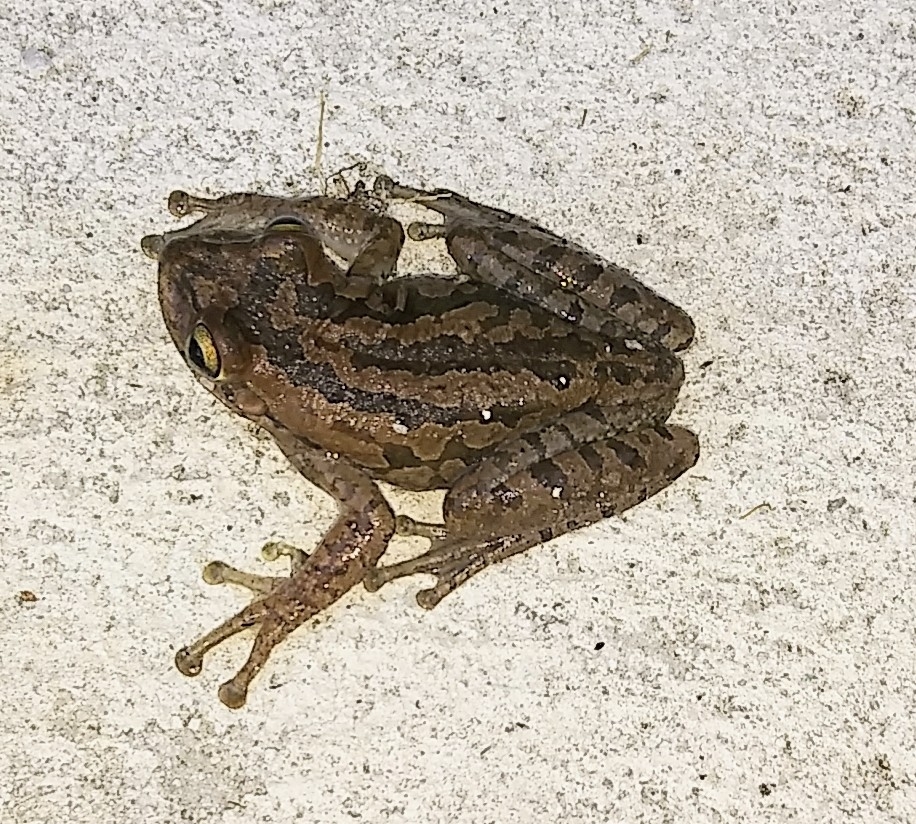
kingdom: Animalia
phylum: Chordata
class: Amphibia
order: Anura
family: Hylidae
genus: Osteopilus
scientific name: Osteopilus septentrionalis
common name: Cuban treefrog
